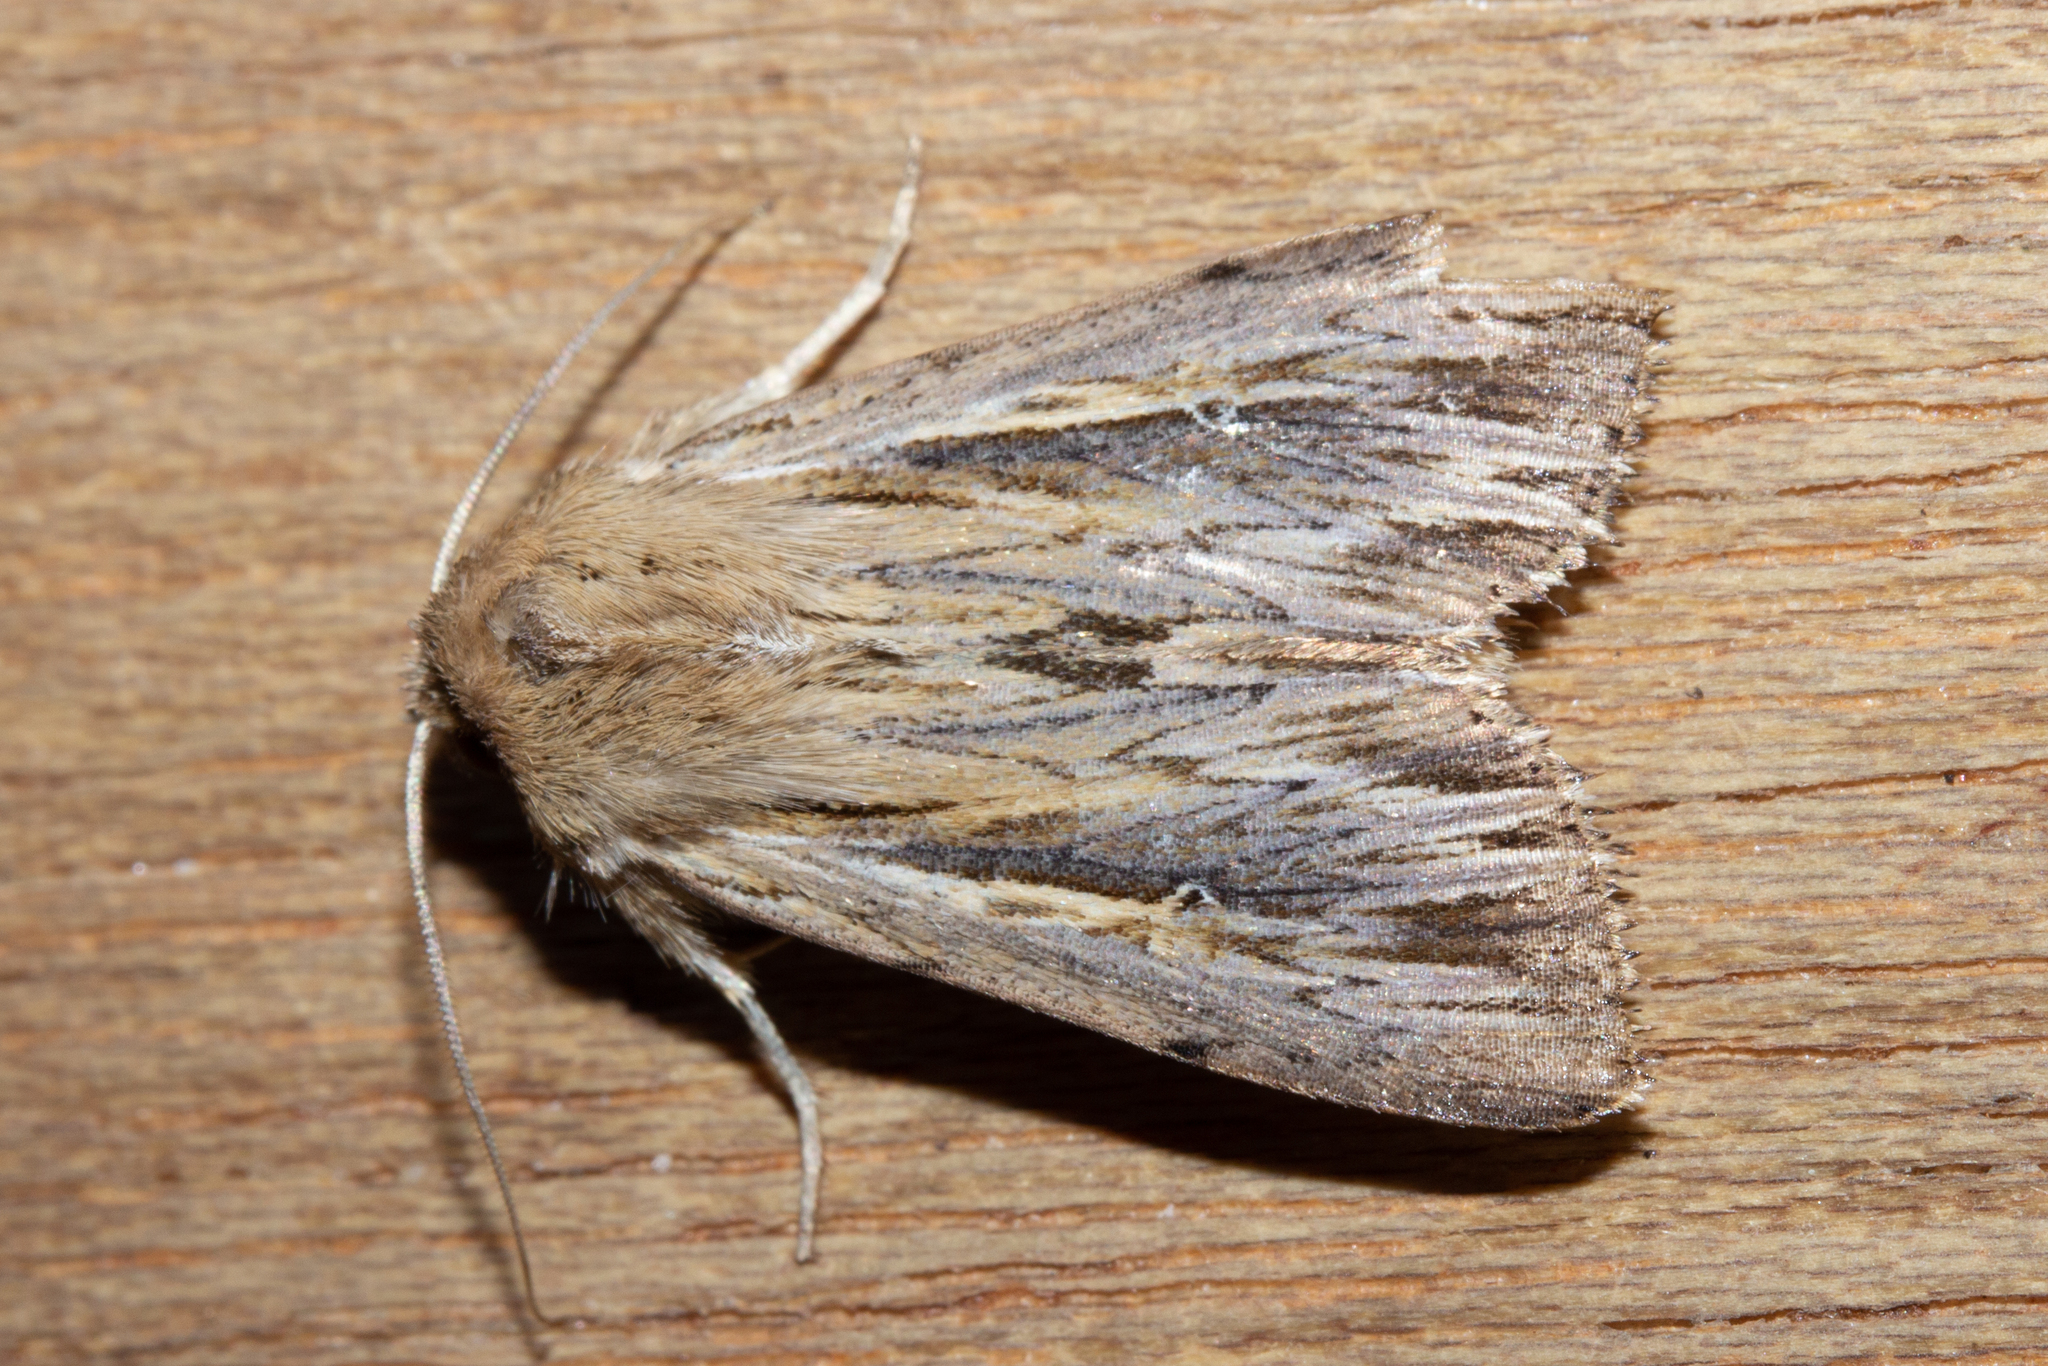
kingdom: Animalia
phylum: Arthropoda
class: Insecta
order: Lepidoptera
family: Noctuidae
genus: Persectania
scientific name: Persectania aversa
